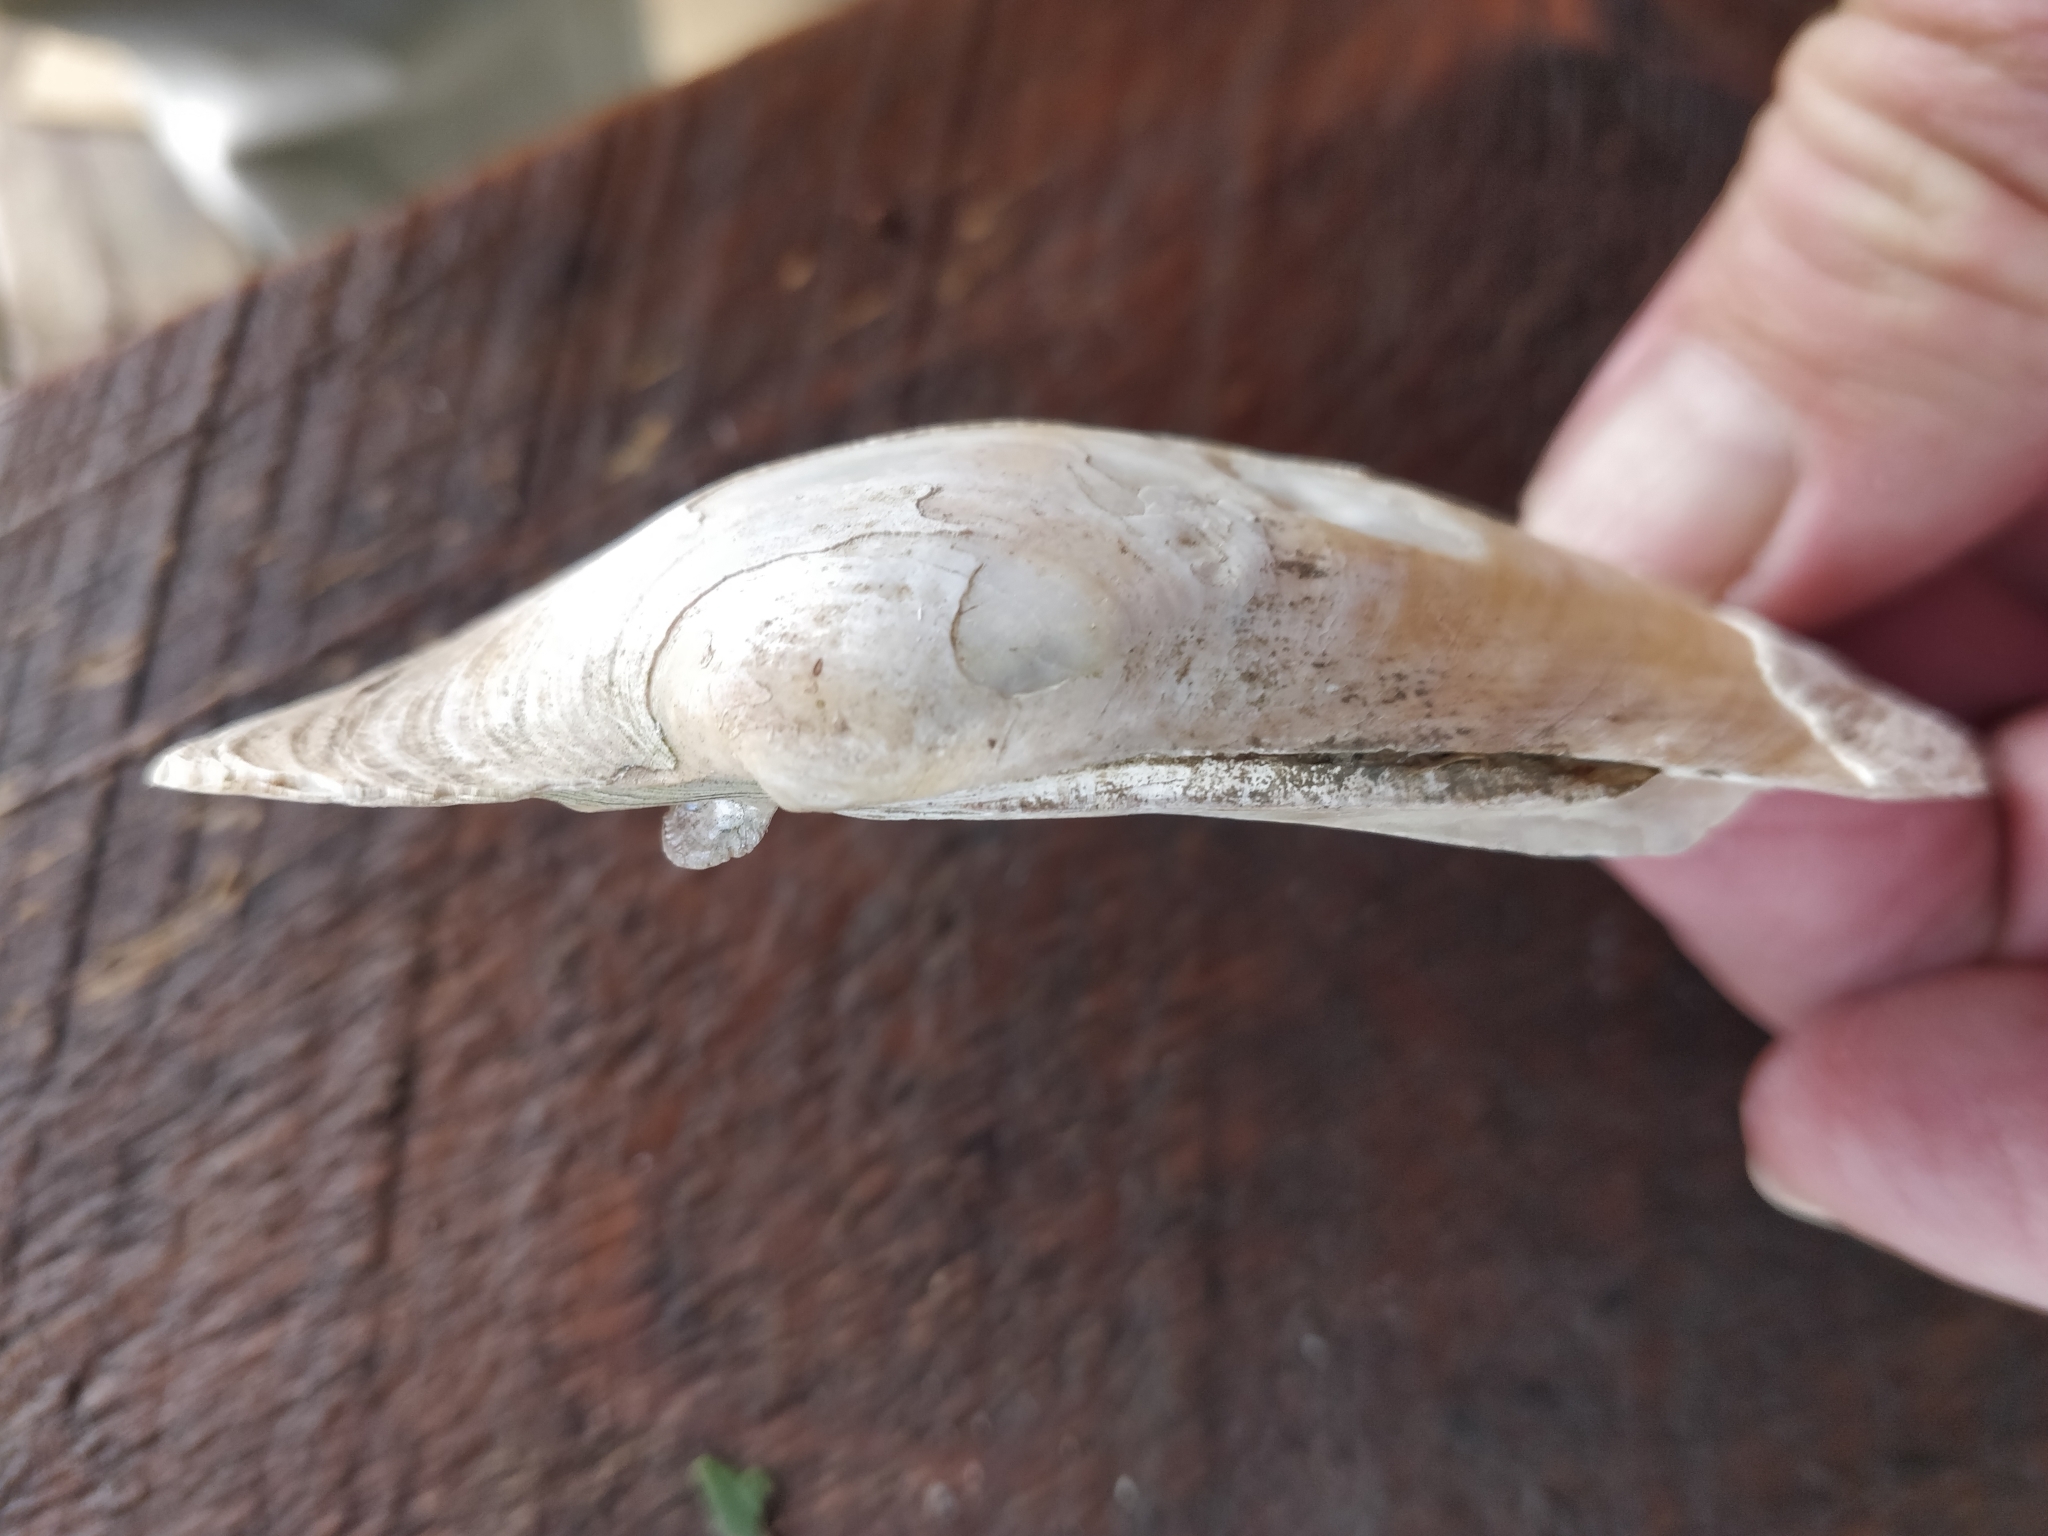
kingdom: Animalia
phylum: Mollusca
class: Bivalvia
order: Unionida
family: Unionidae
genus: Lampsilis
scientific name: Lampsilis cardium
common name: Plain pocketbook
